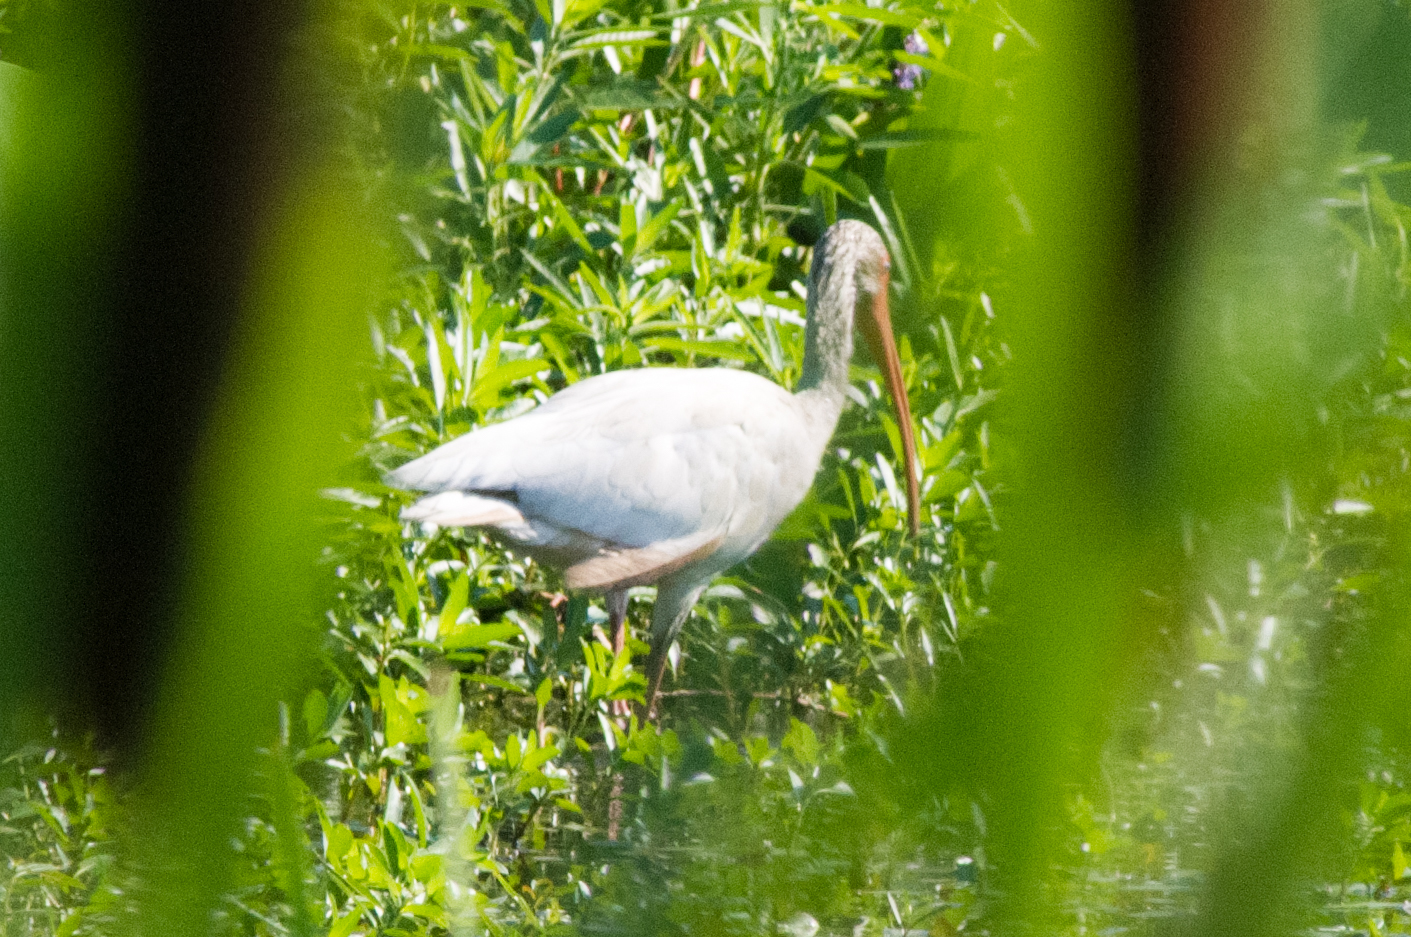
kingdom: Animalia
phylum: Chordata
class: Aves
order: Pelecaniformes
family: Threskiornithidae
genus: Eudocimus
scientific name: Eudocimus albus
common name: White ibis
